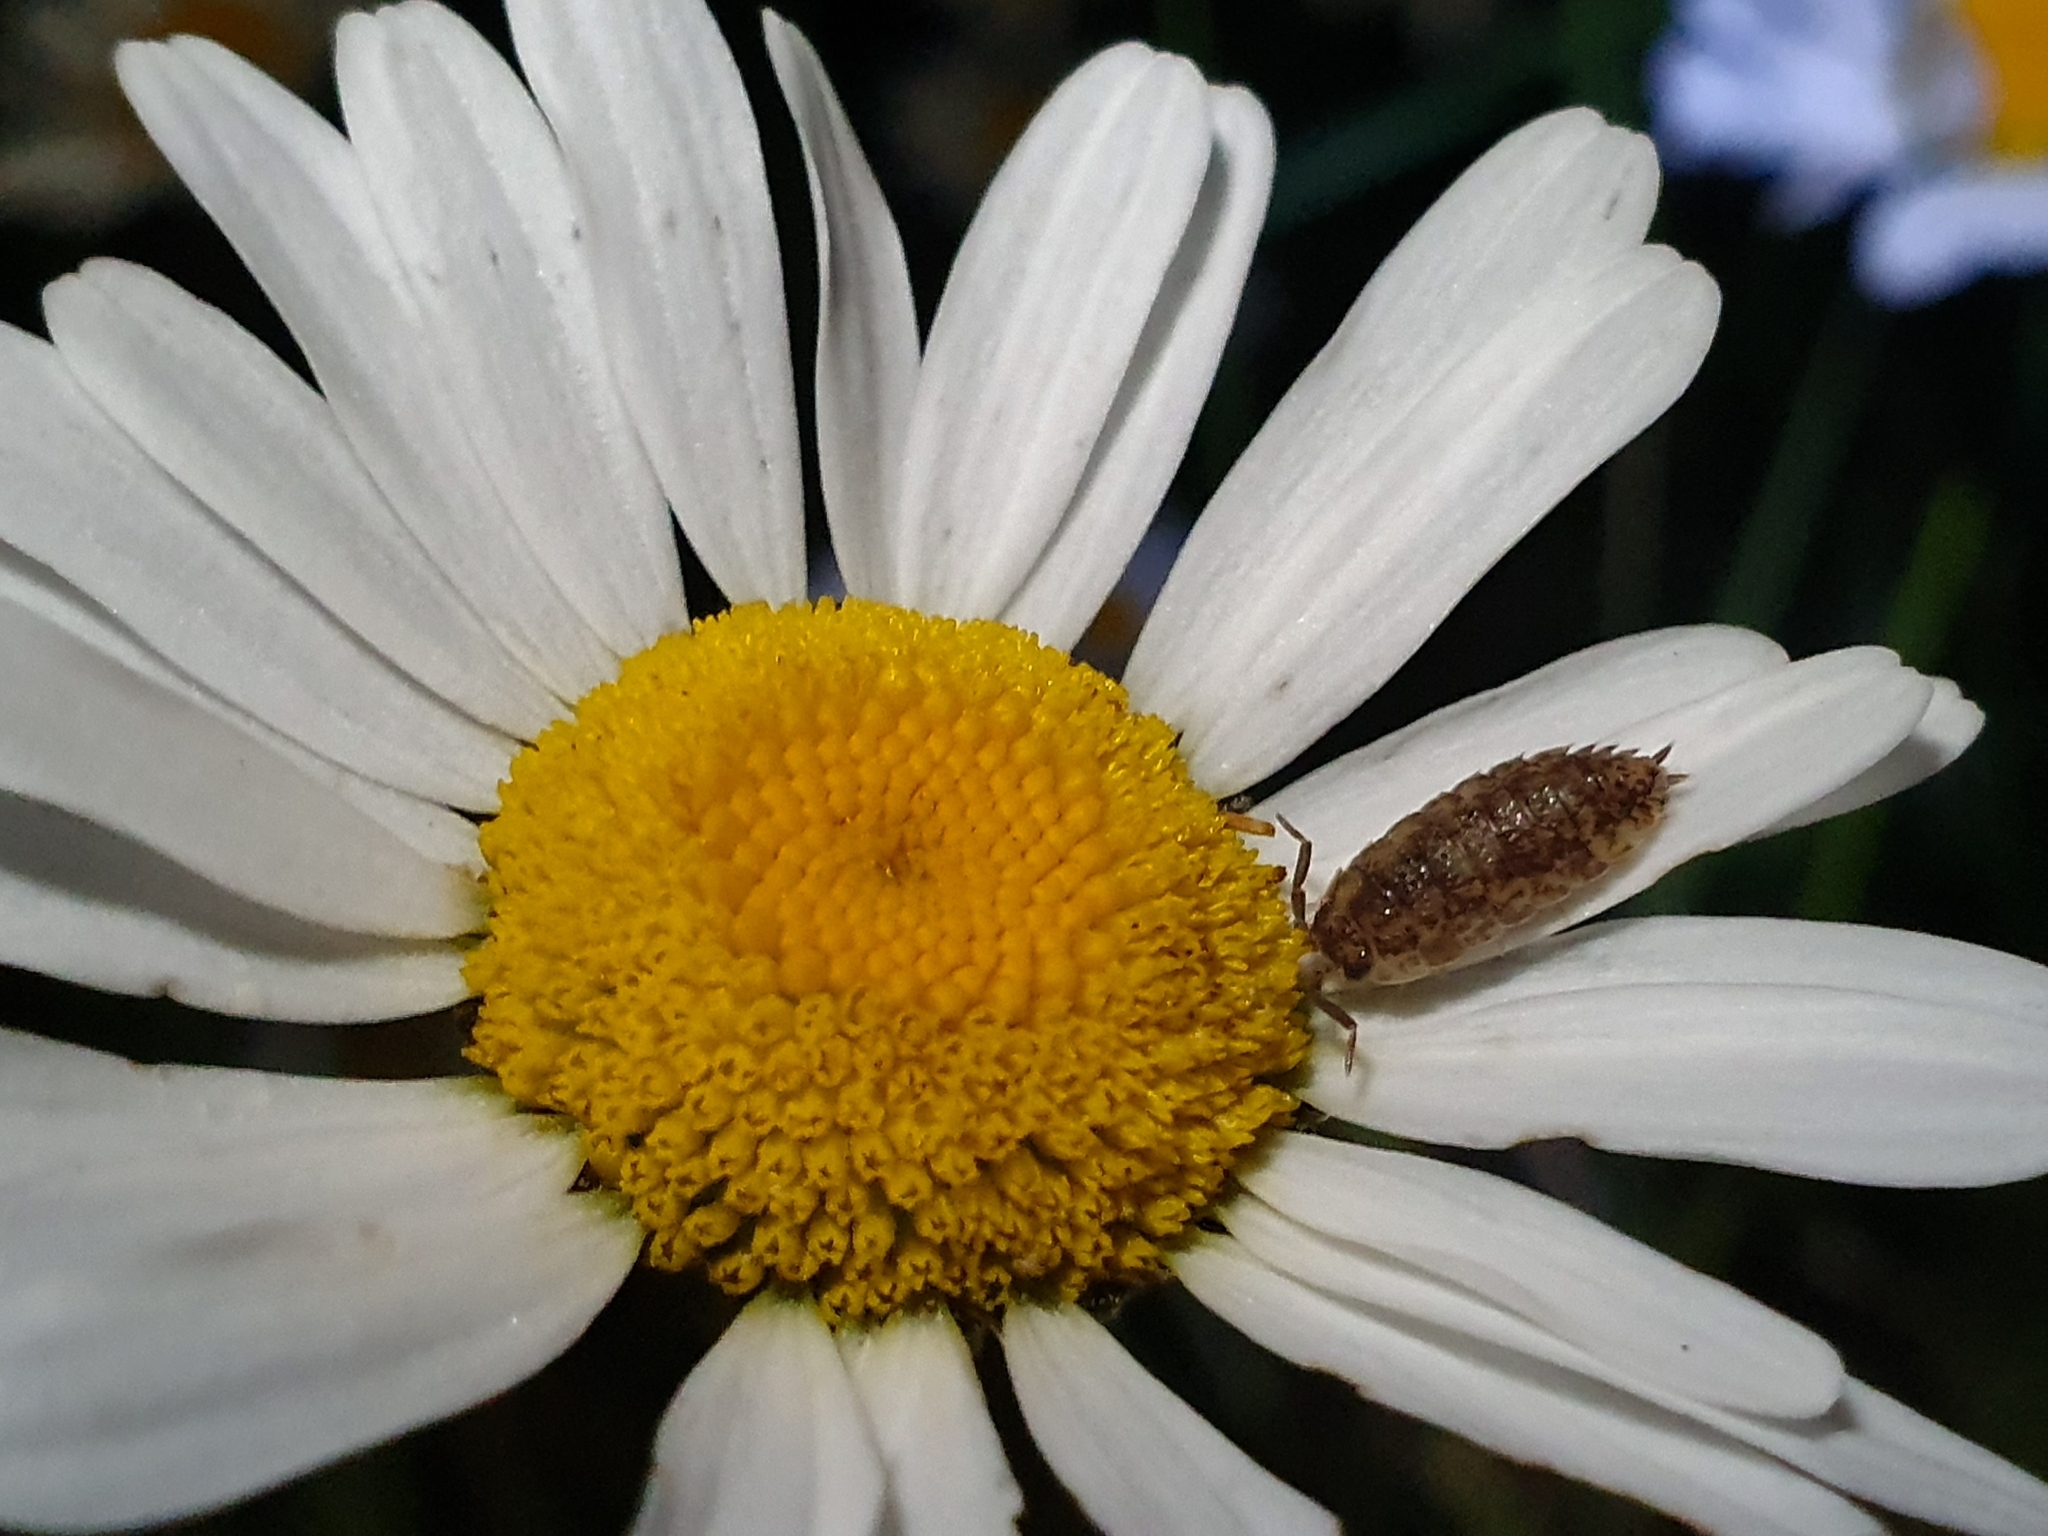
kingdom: Animalia
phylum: Arthropoda
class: Malacostraca
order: Isopoda
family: Porcellionidae
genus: Porcellio
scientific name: Porcellio scaber
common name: Common rough woodlouse
